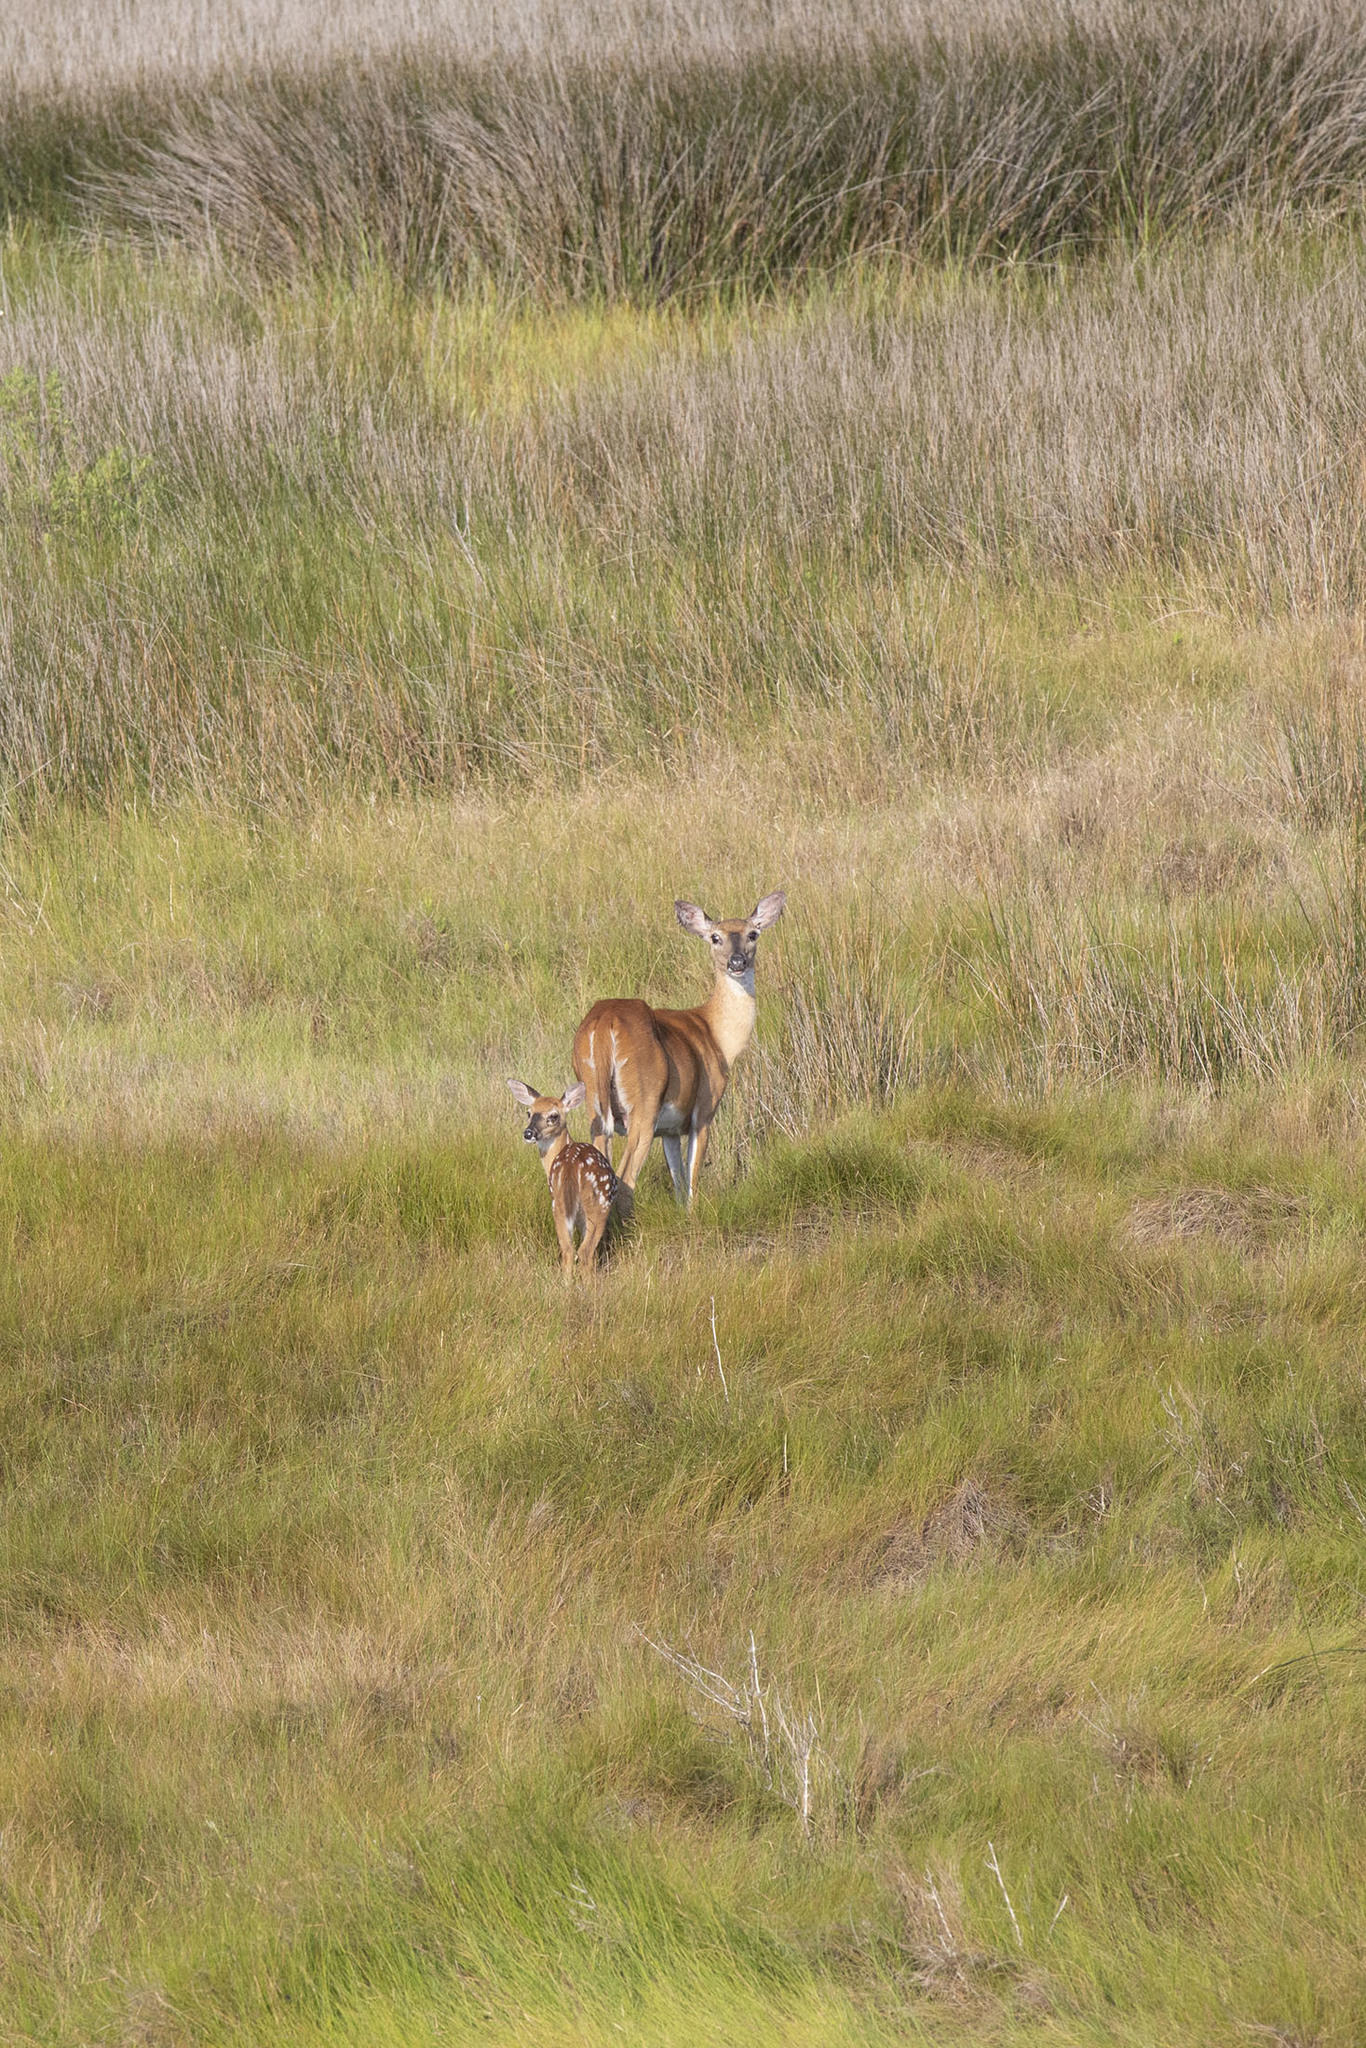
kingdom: Animalia
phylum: Chordata
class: Mammalia
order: Artiodactyla
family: Cervidae
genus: Odocoileus
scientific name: Odocoileus virginianus
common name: White-tailed deer
